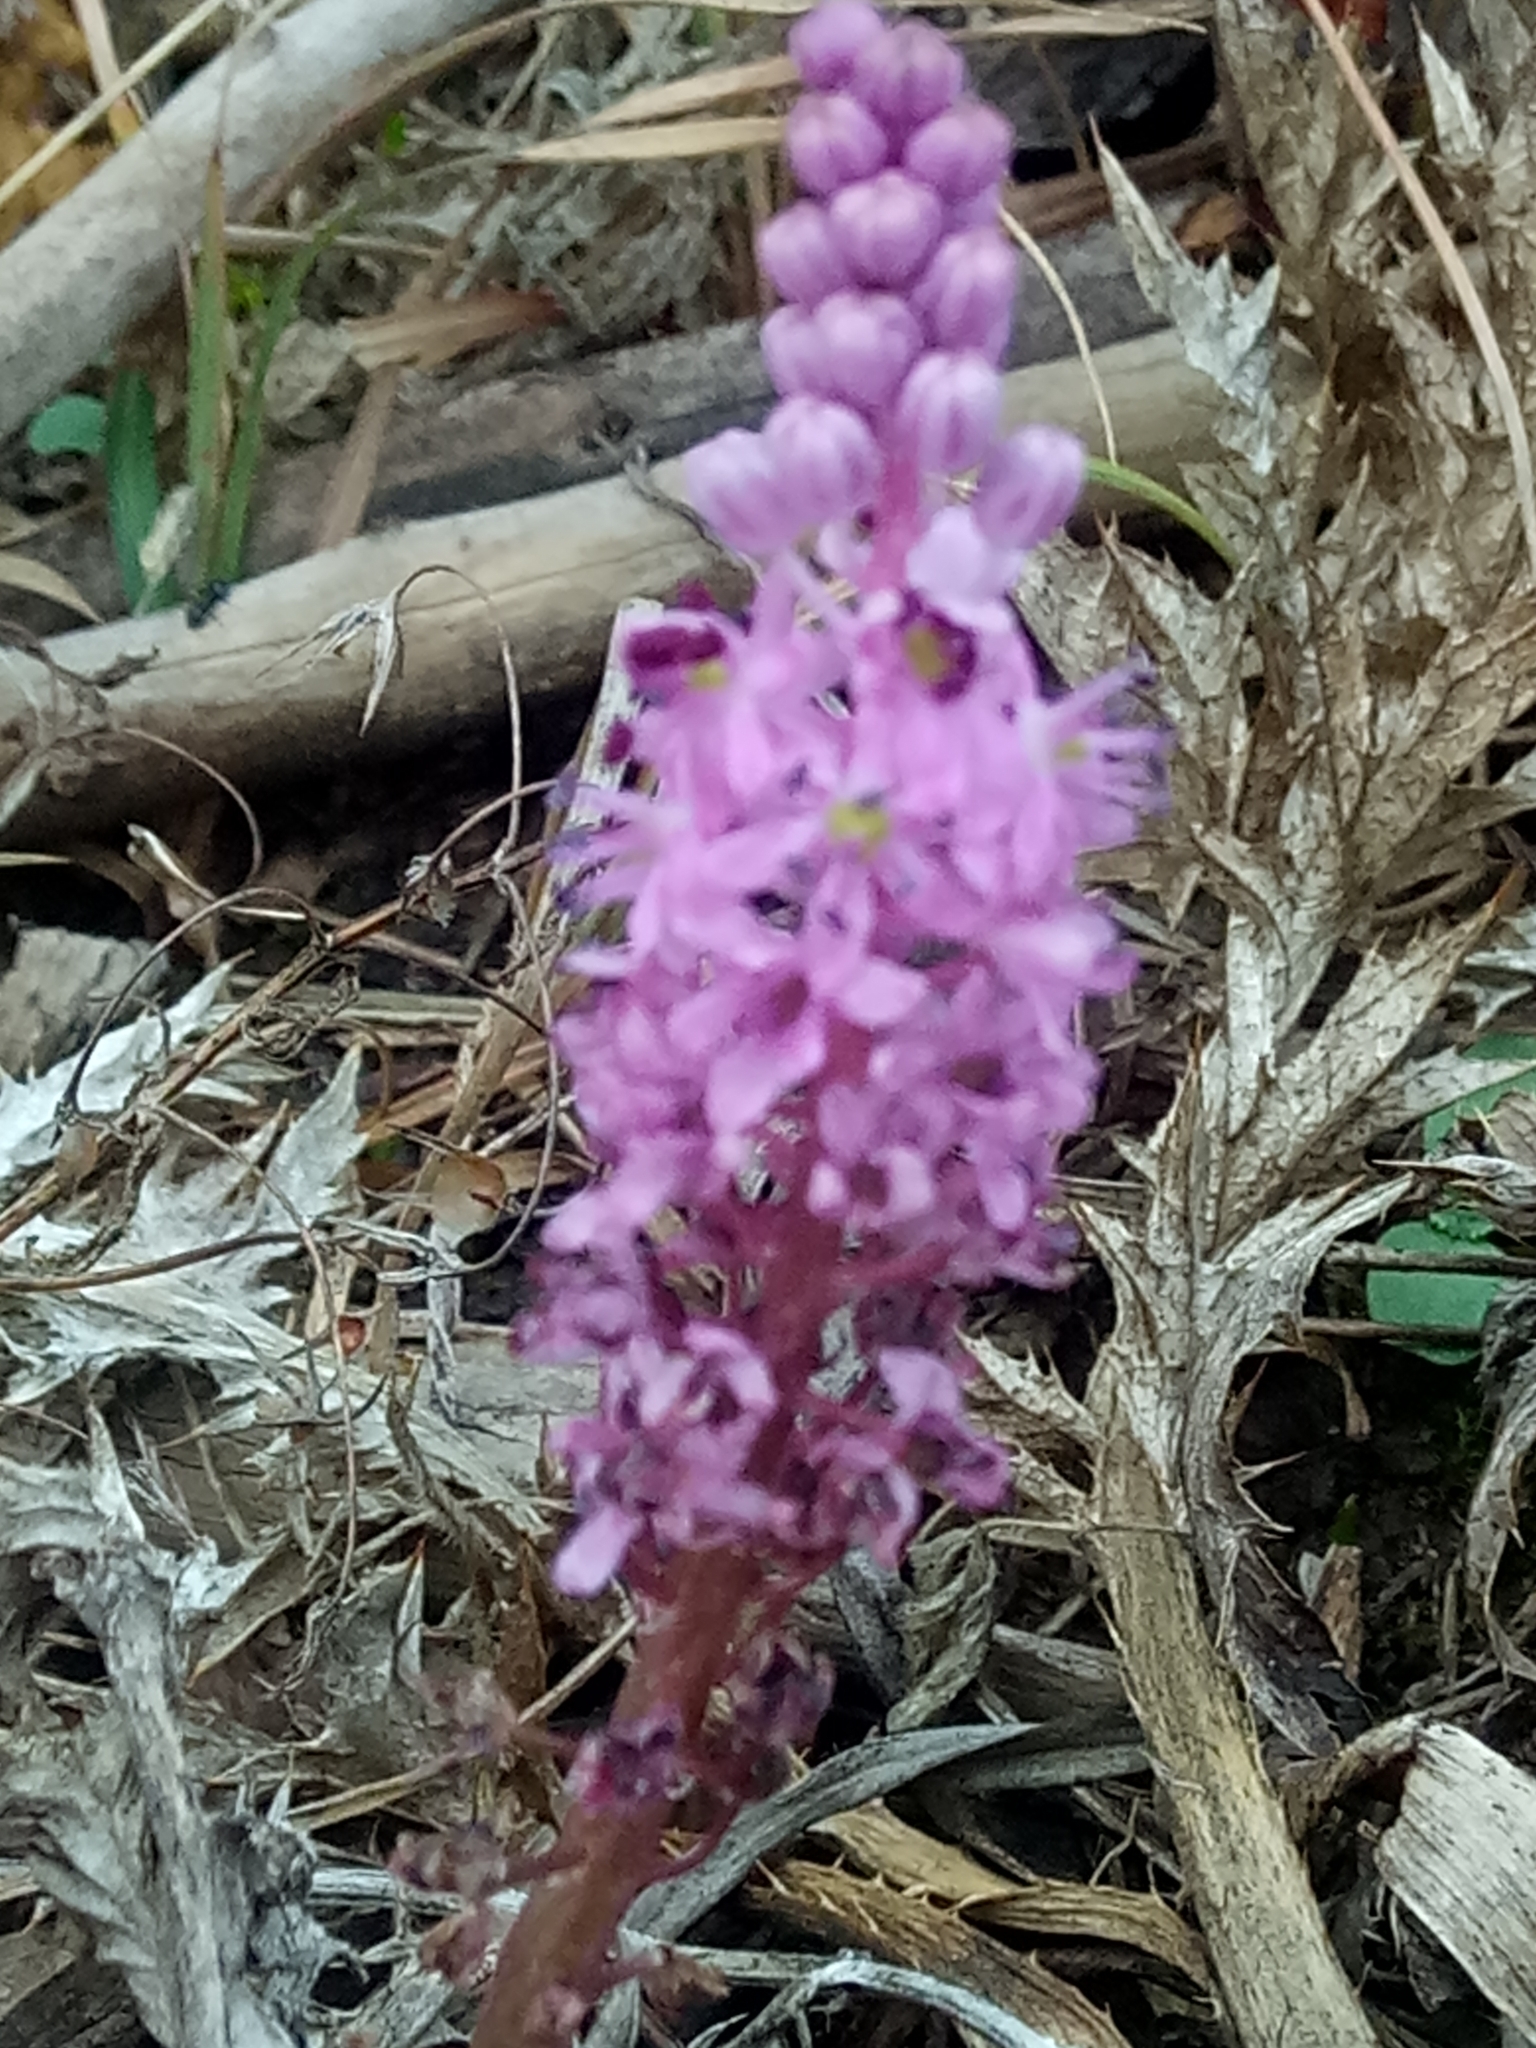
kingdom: Plantae
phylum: Tracheophyta
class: Liliopsida
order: Asparagales
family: Asparagaceae
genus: Barnardia
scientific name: Barnardia numidica
